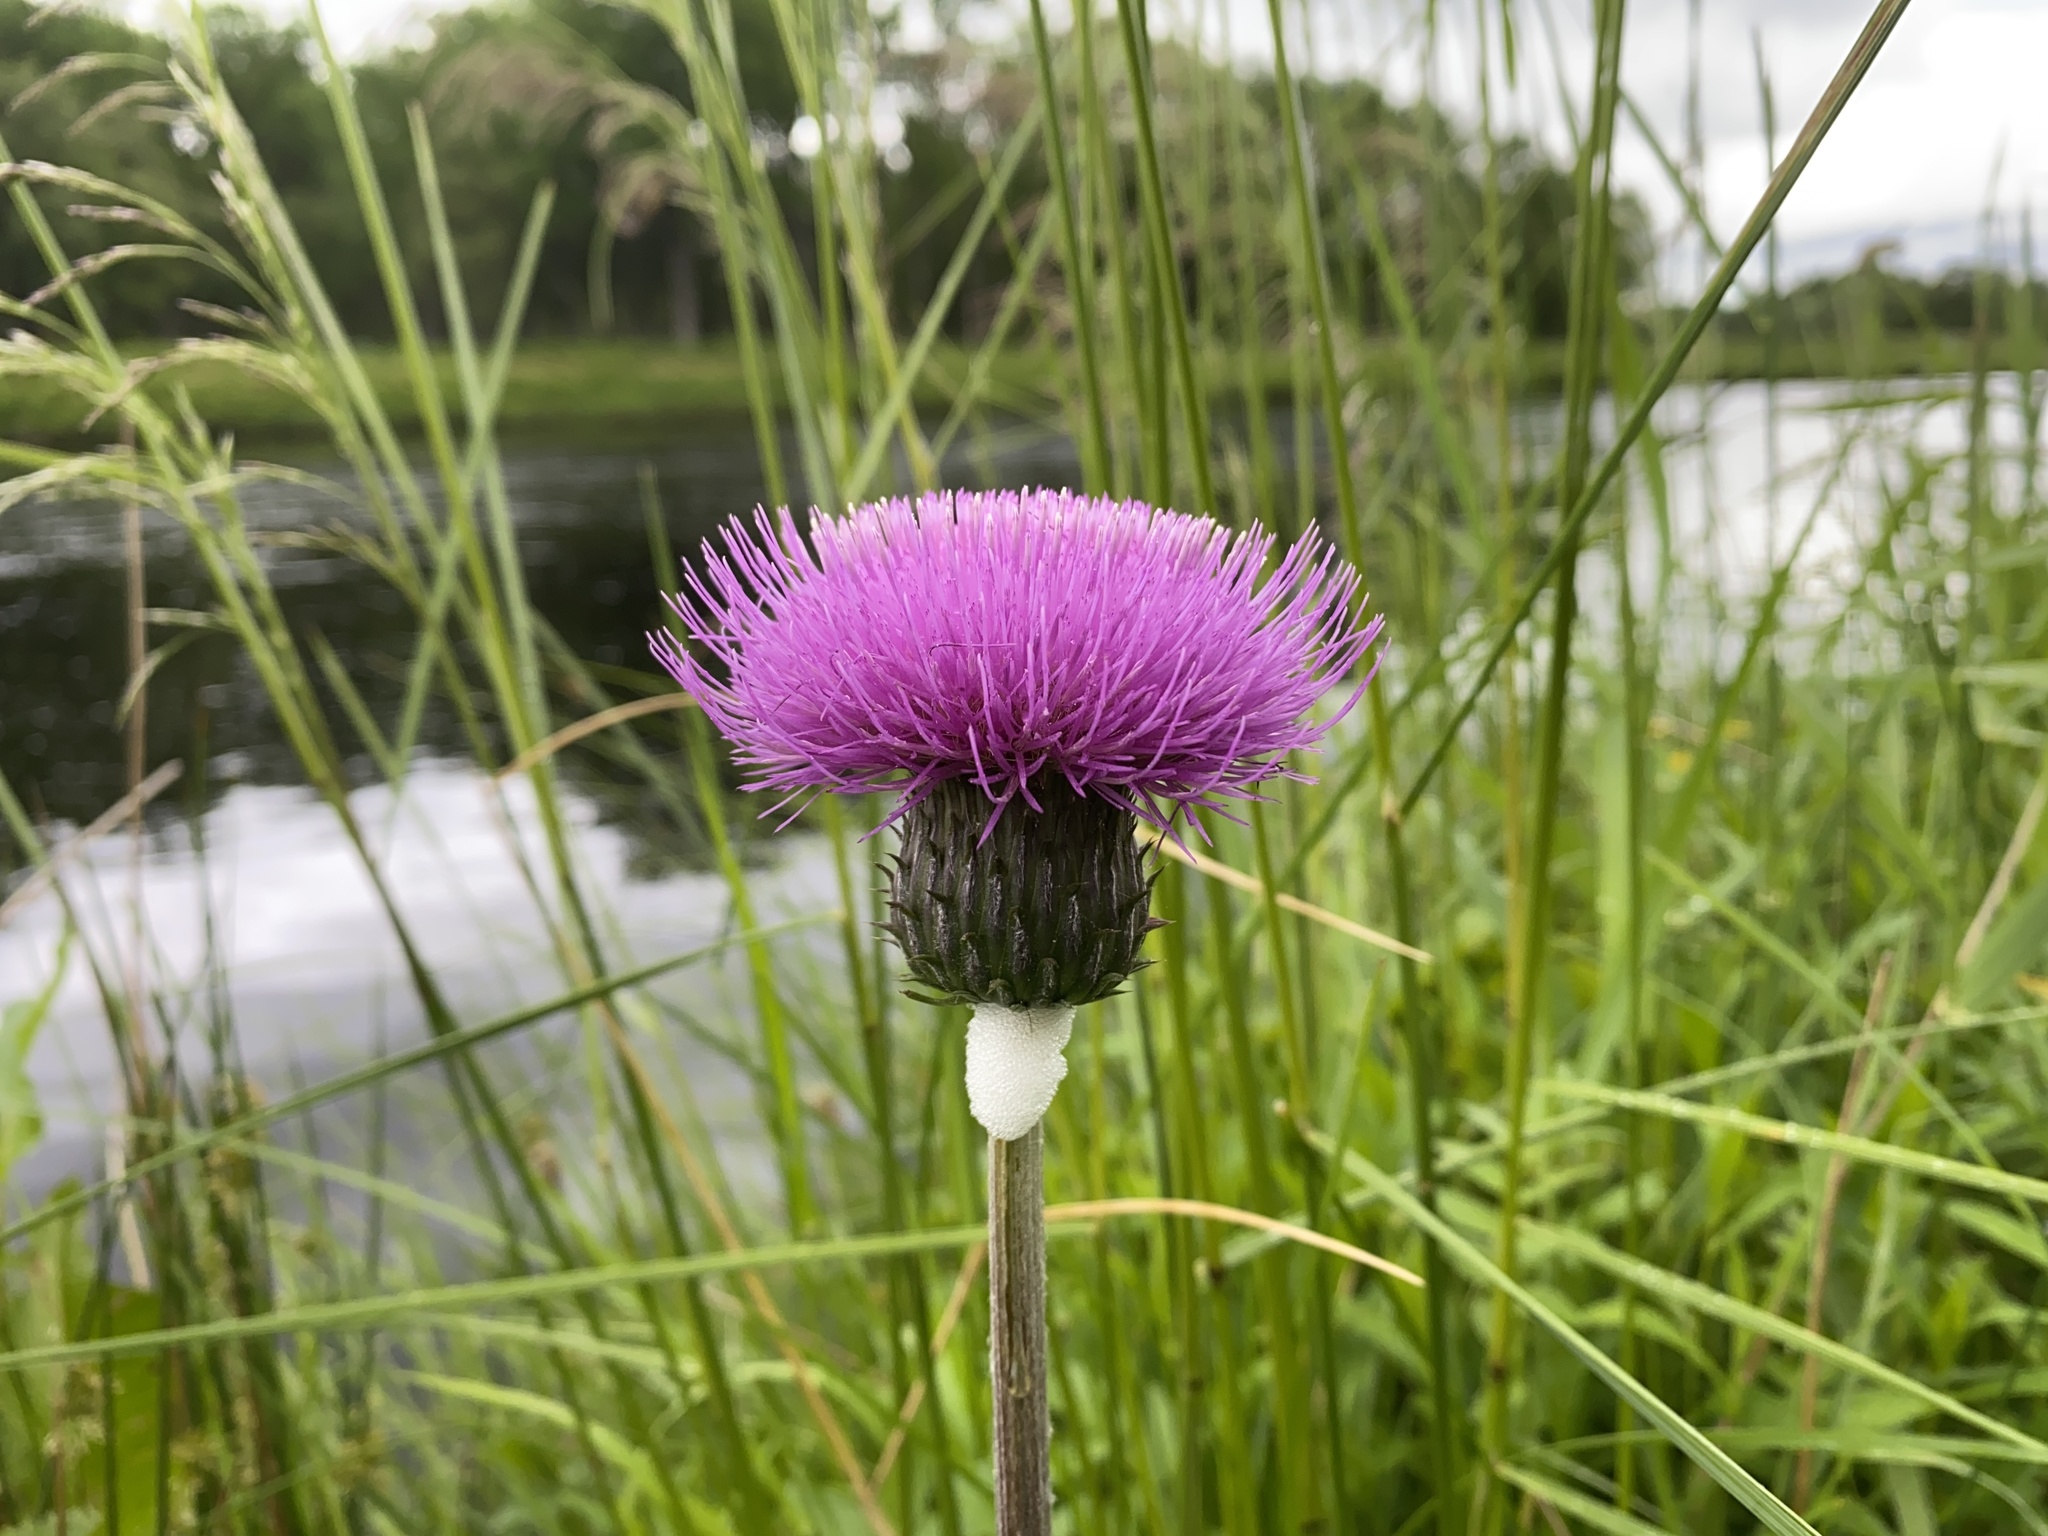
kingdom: Plantae
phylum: Tracheophyta
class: Magnoliopsida
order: Asterales
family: Asteraceae
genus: Cirsium
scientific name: Cirsium heterophyllum
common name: Melancholy thistle
